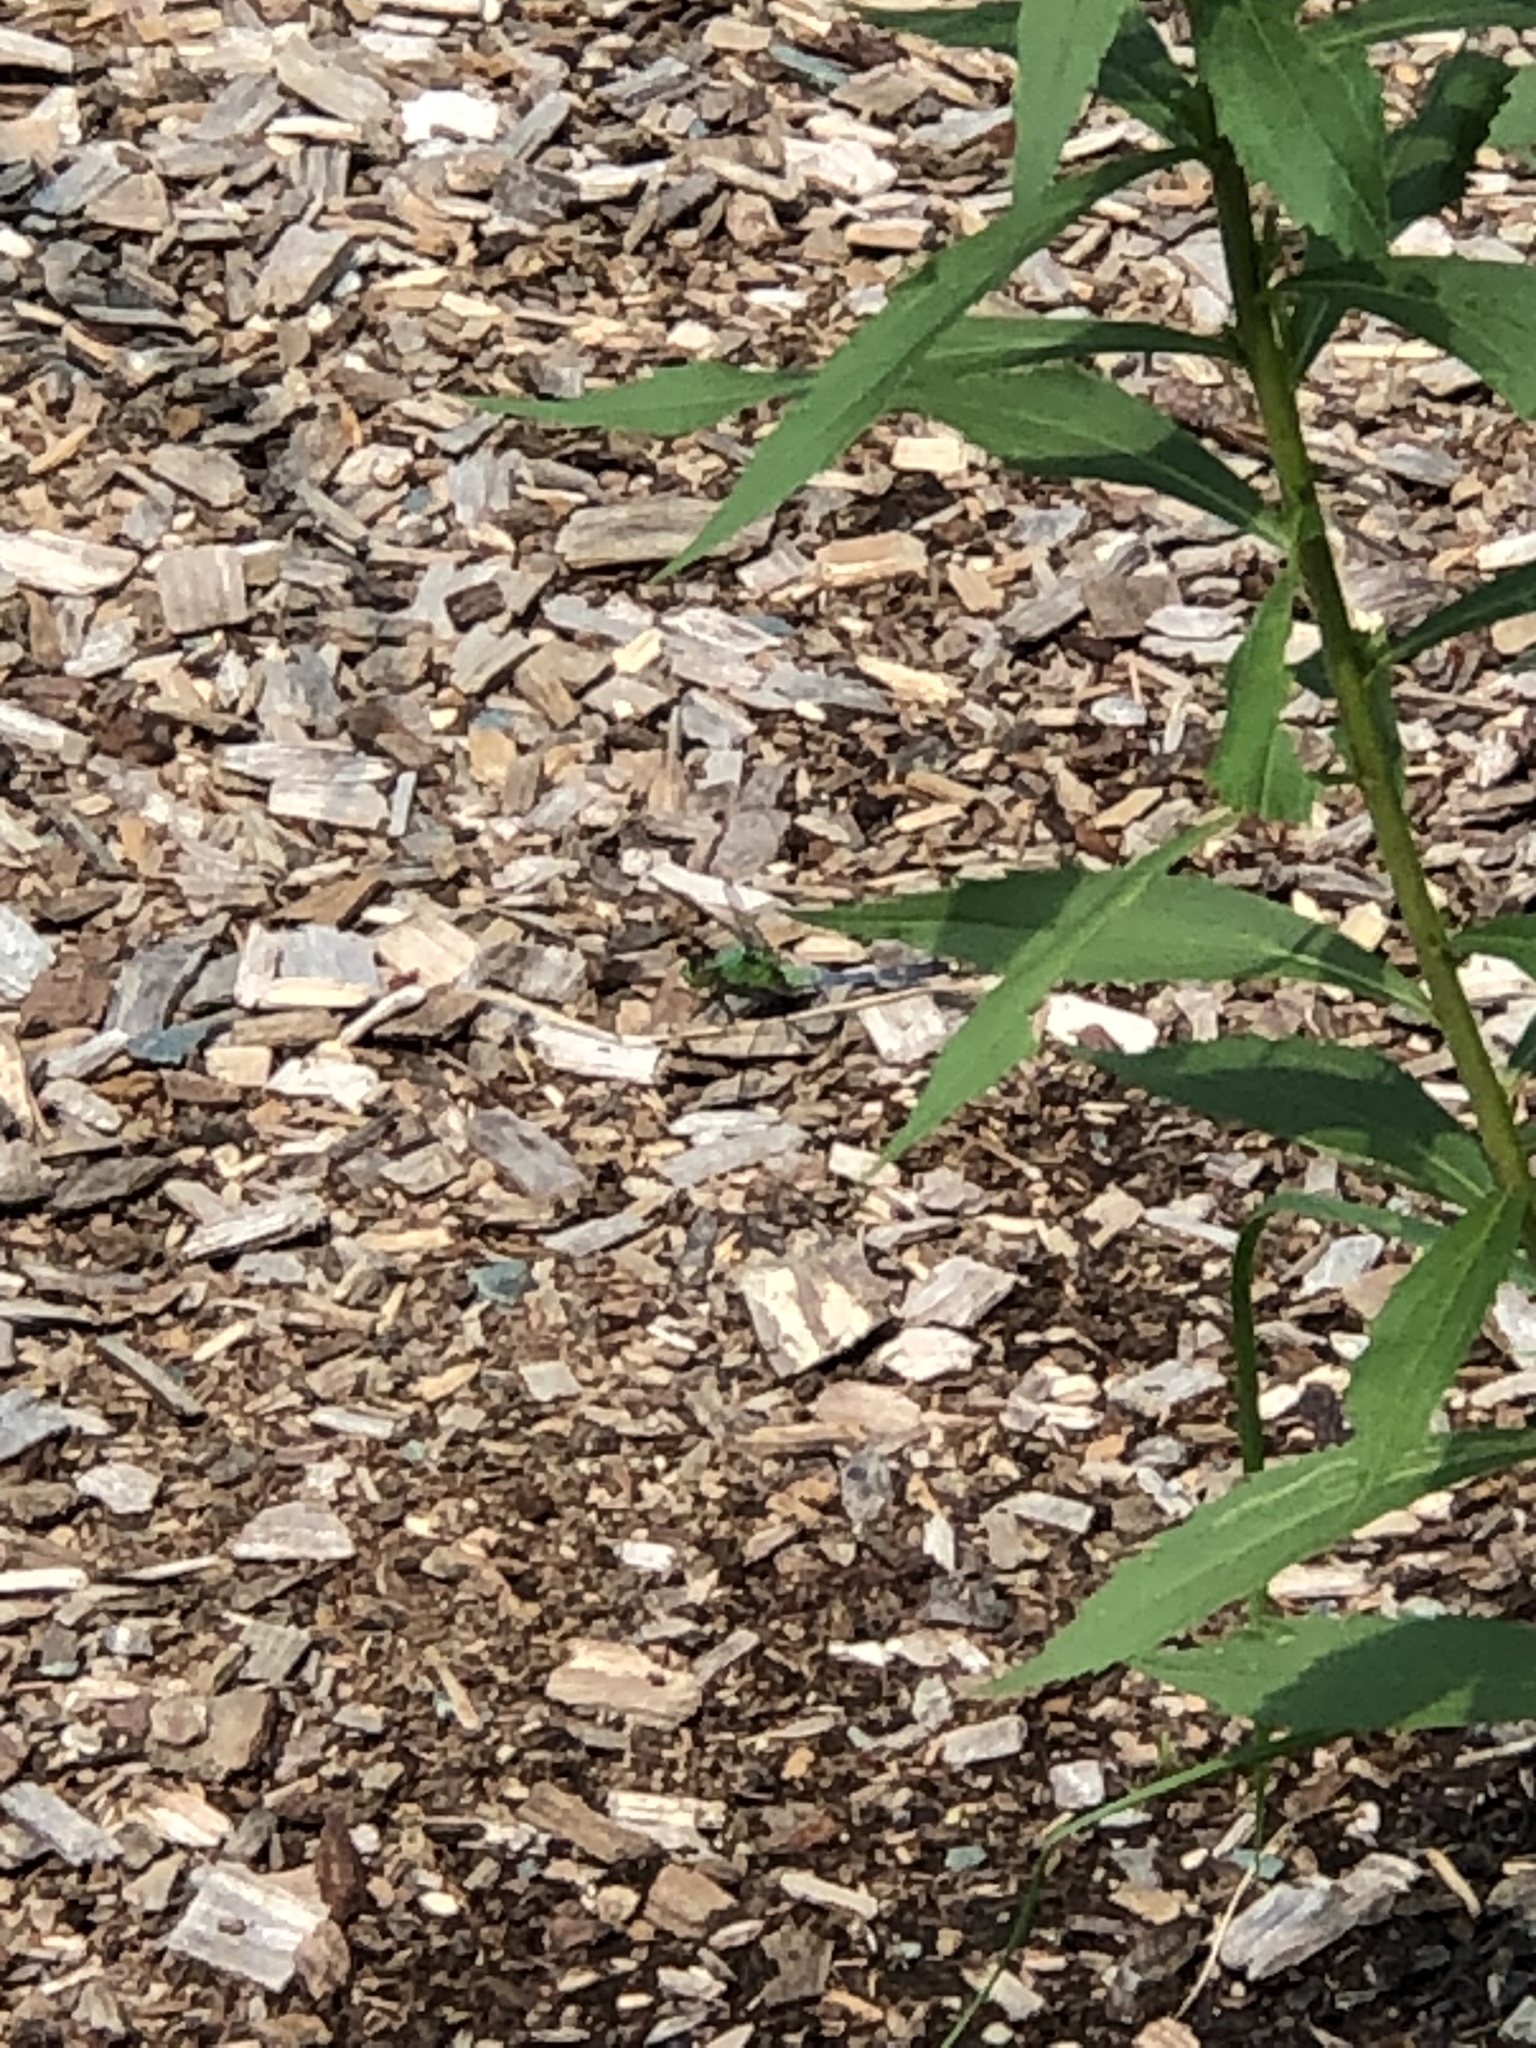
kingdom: Animalia
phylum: Arthropoda
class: Insecta
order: Odonata
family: Libellulidae
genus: Erythemis
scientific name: Erythemis simplicicollis
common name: Eastern pondhawk
